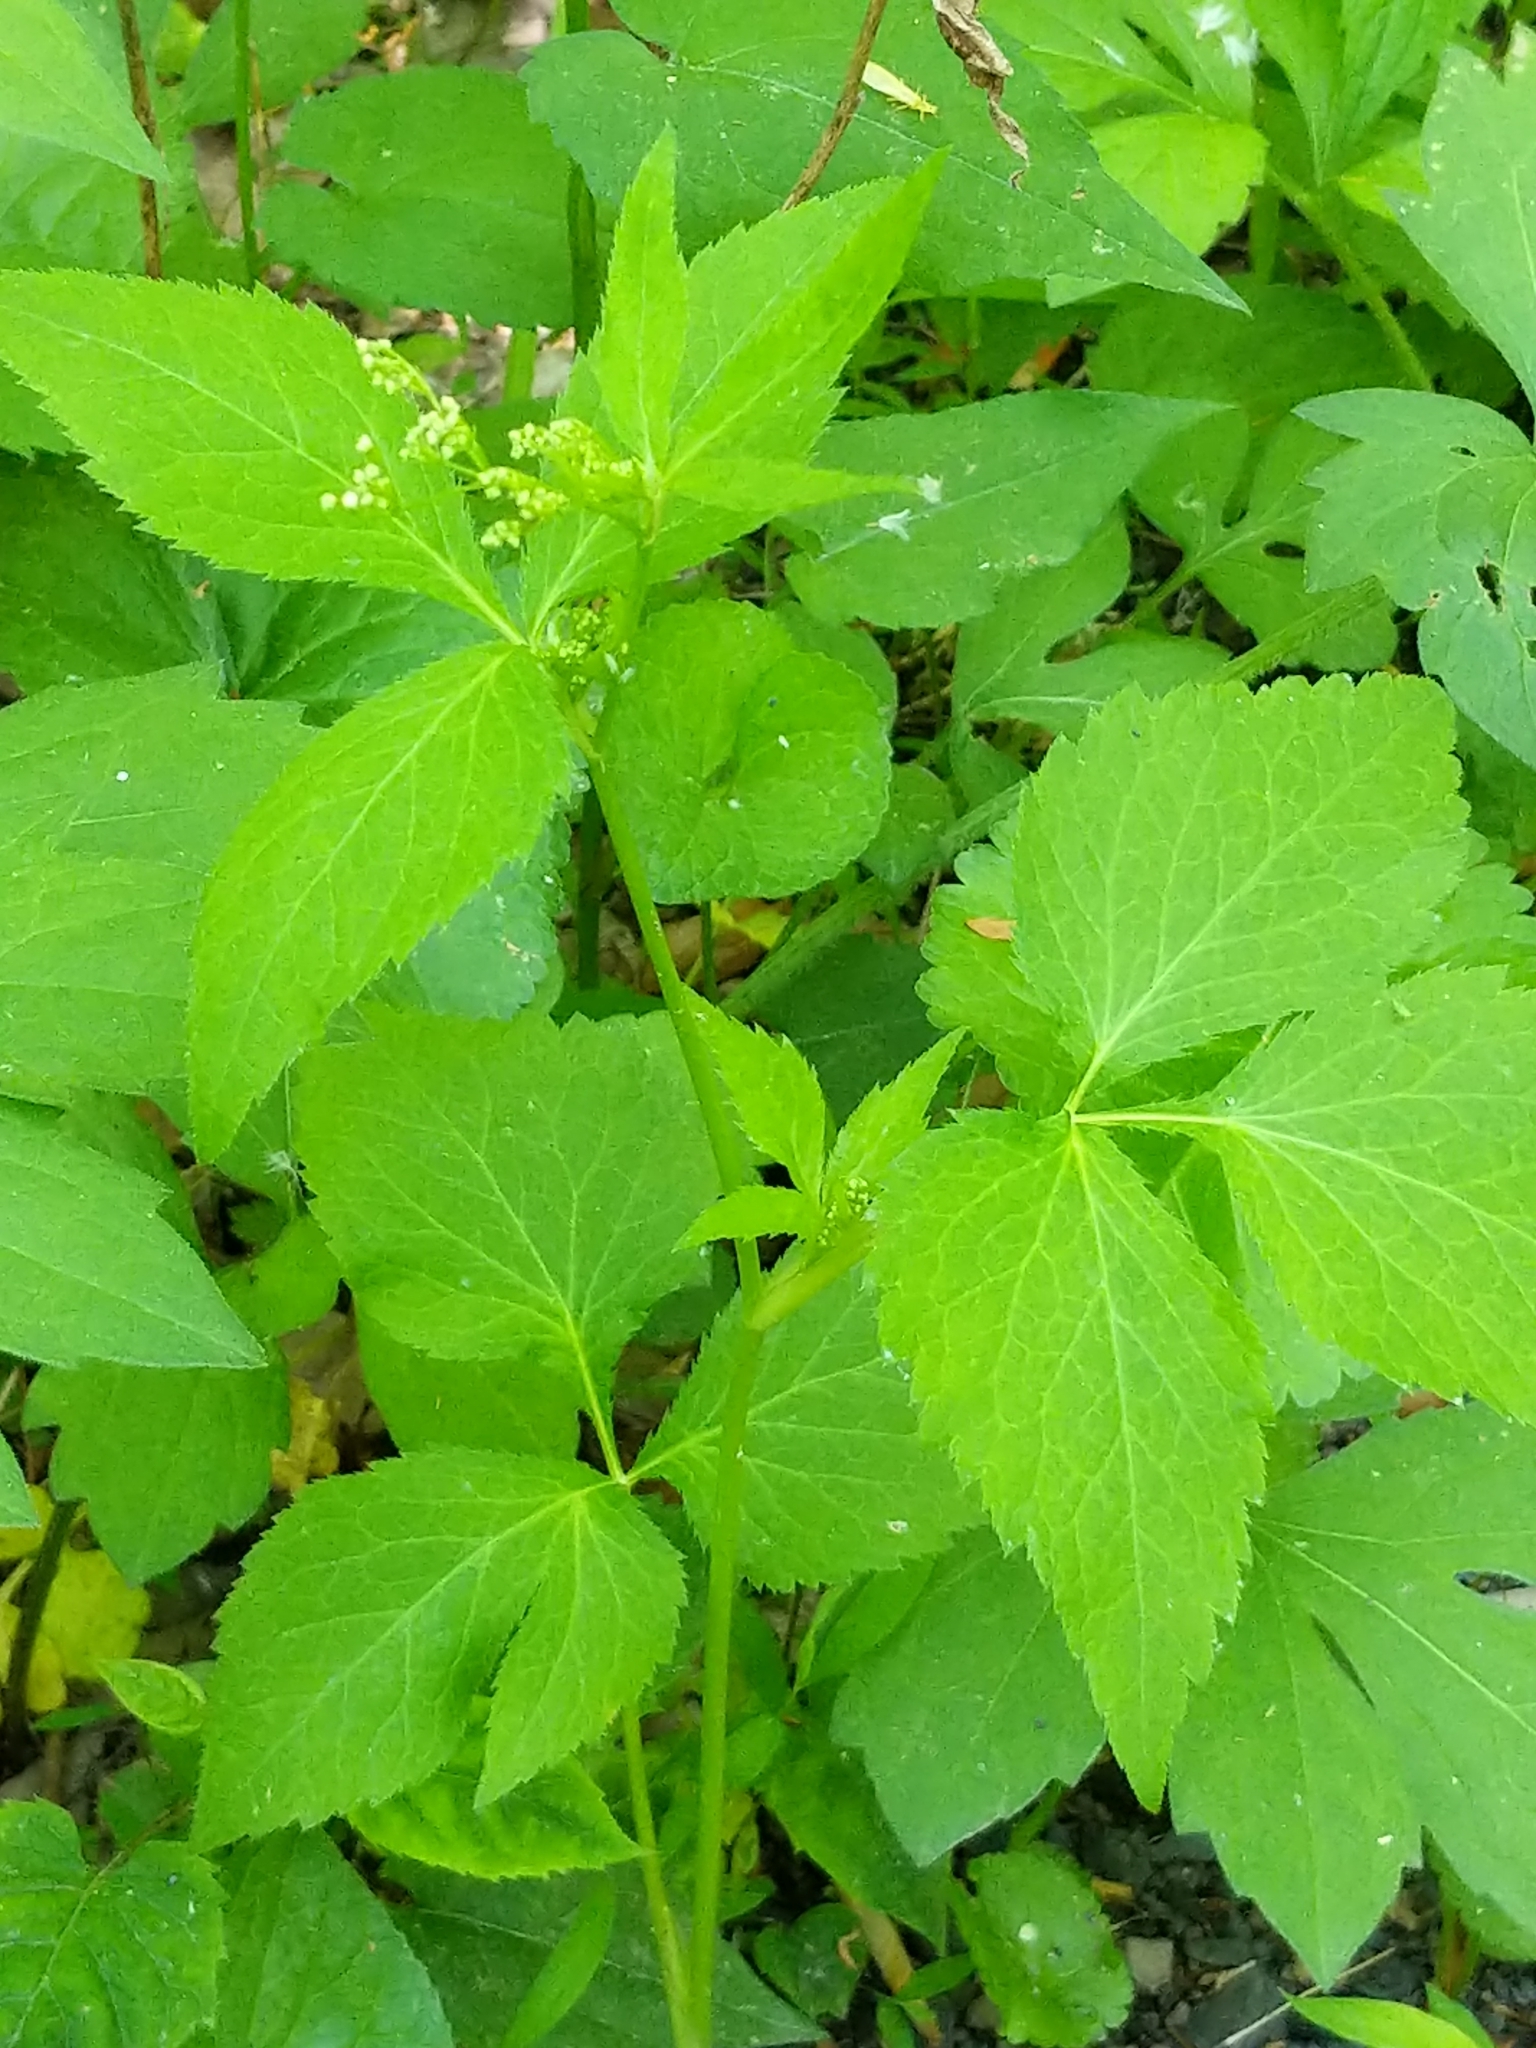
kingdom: Plantae
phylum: Tracheophyta
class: Magnoliopsida
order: Apiales
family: Apiaceae
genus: Cryptotaenia
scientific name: Cryptotaenia canadensis
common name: Honewort
